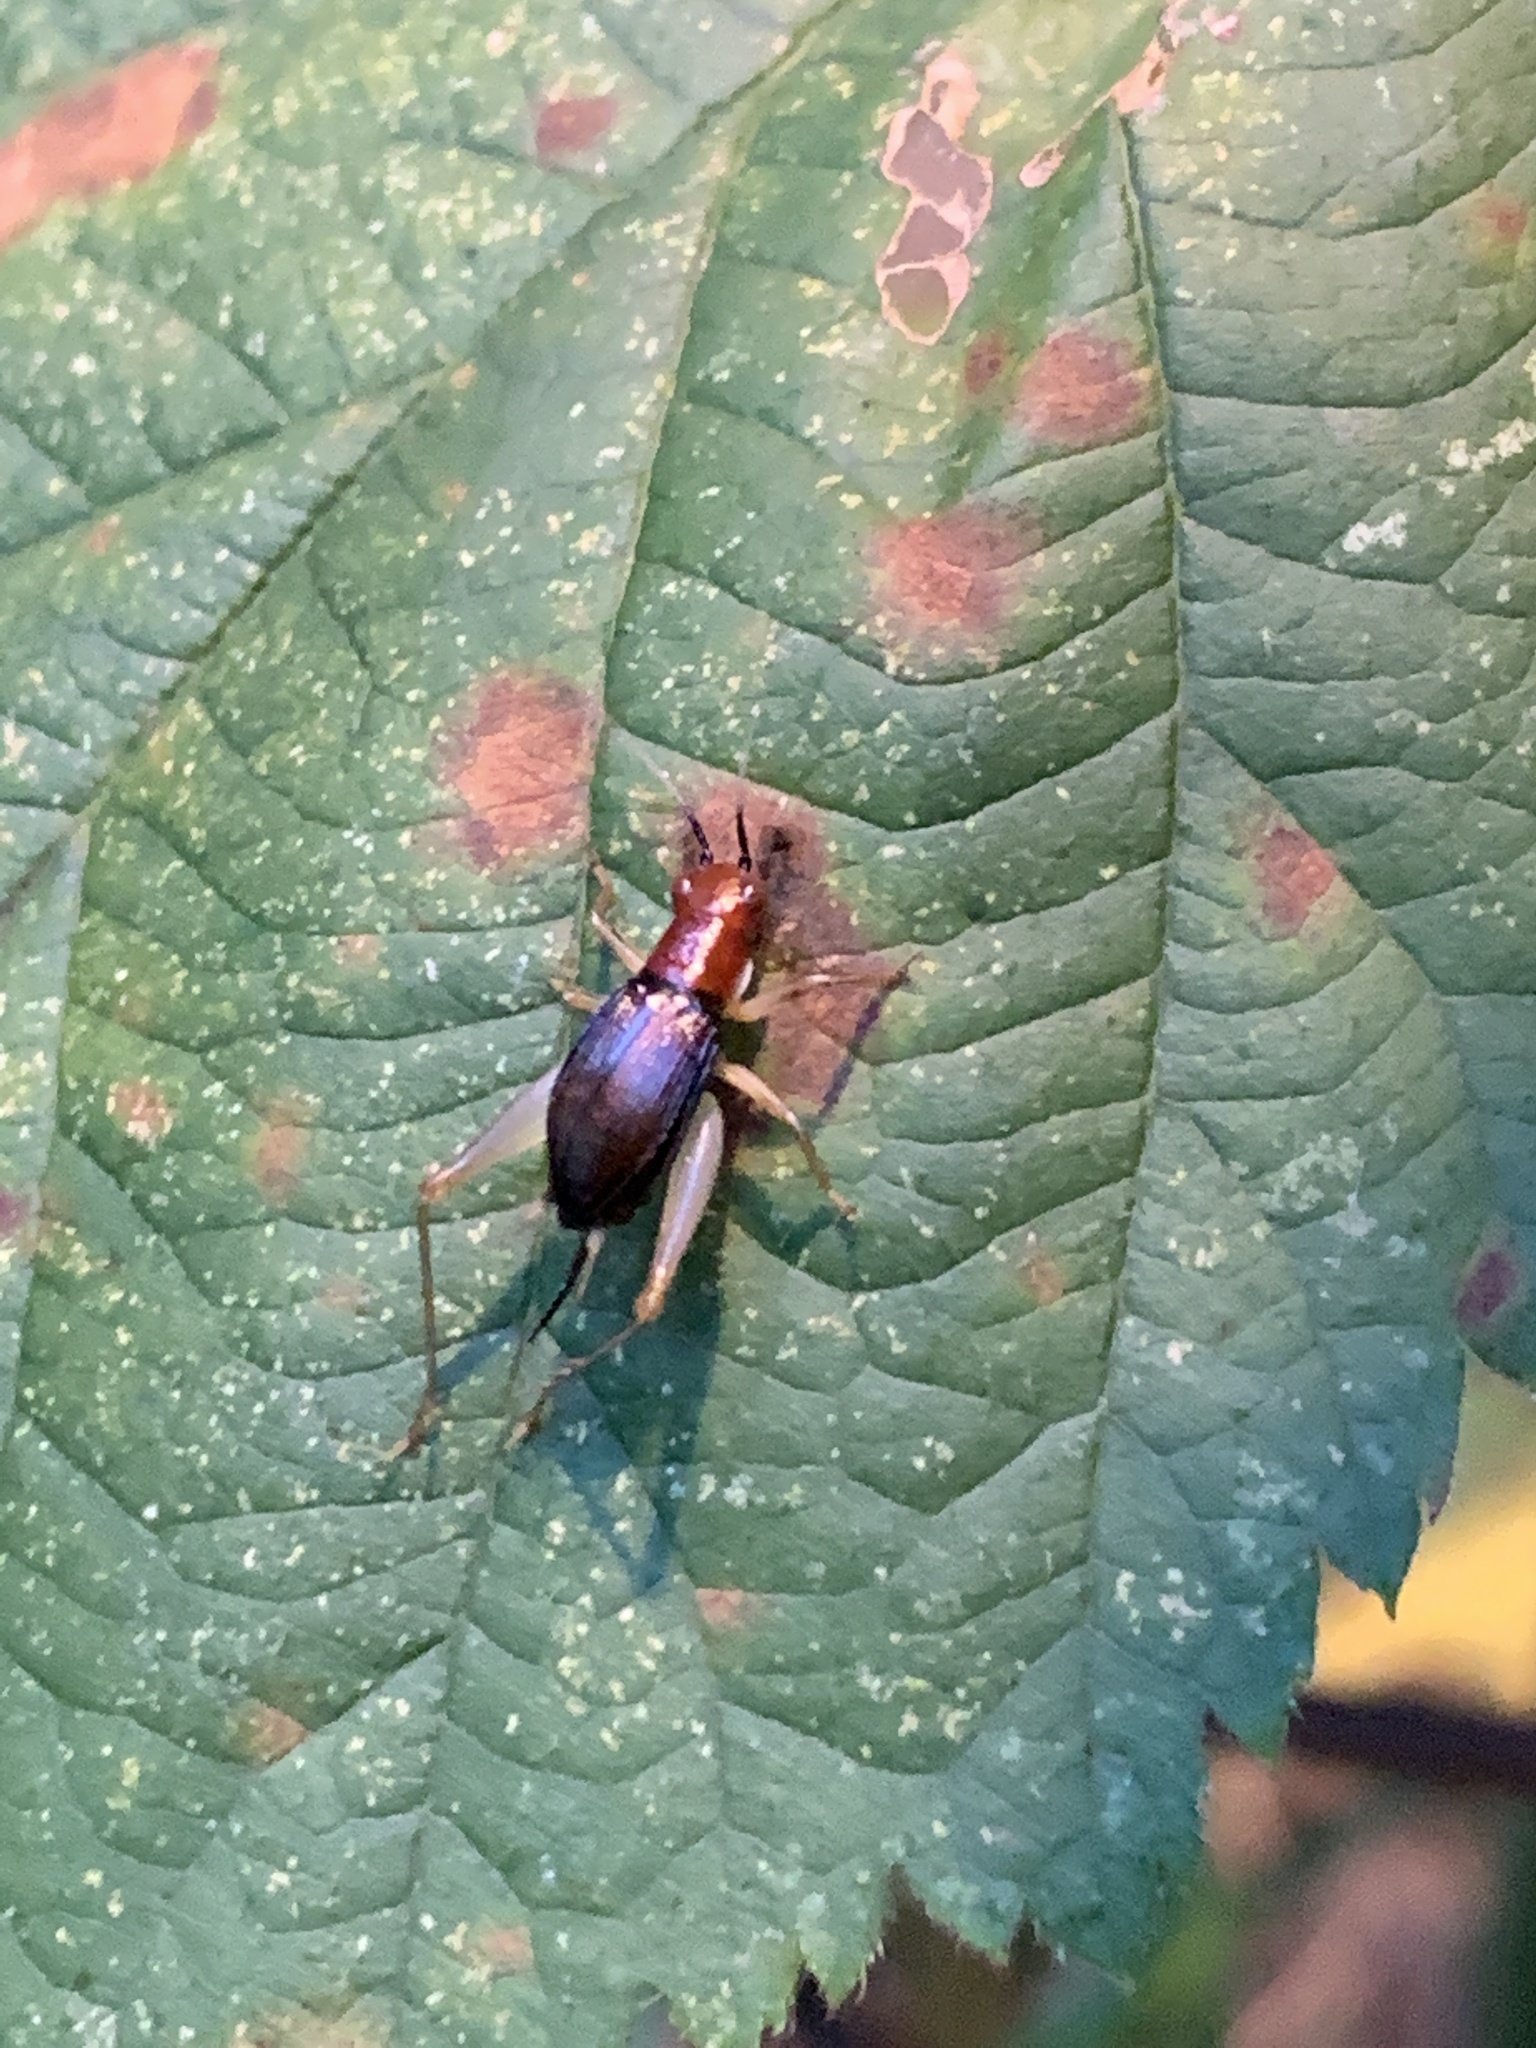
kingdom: Animalia
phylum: Arthropoda
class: Insecta
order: Orthoptera
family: Trigonidiidae
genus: Phyllopalpus
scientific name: Phyllopalpus pulchellus
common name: Handsome trig
